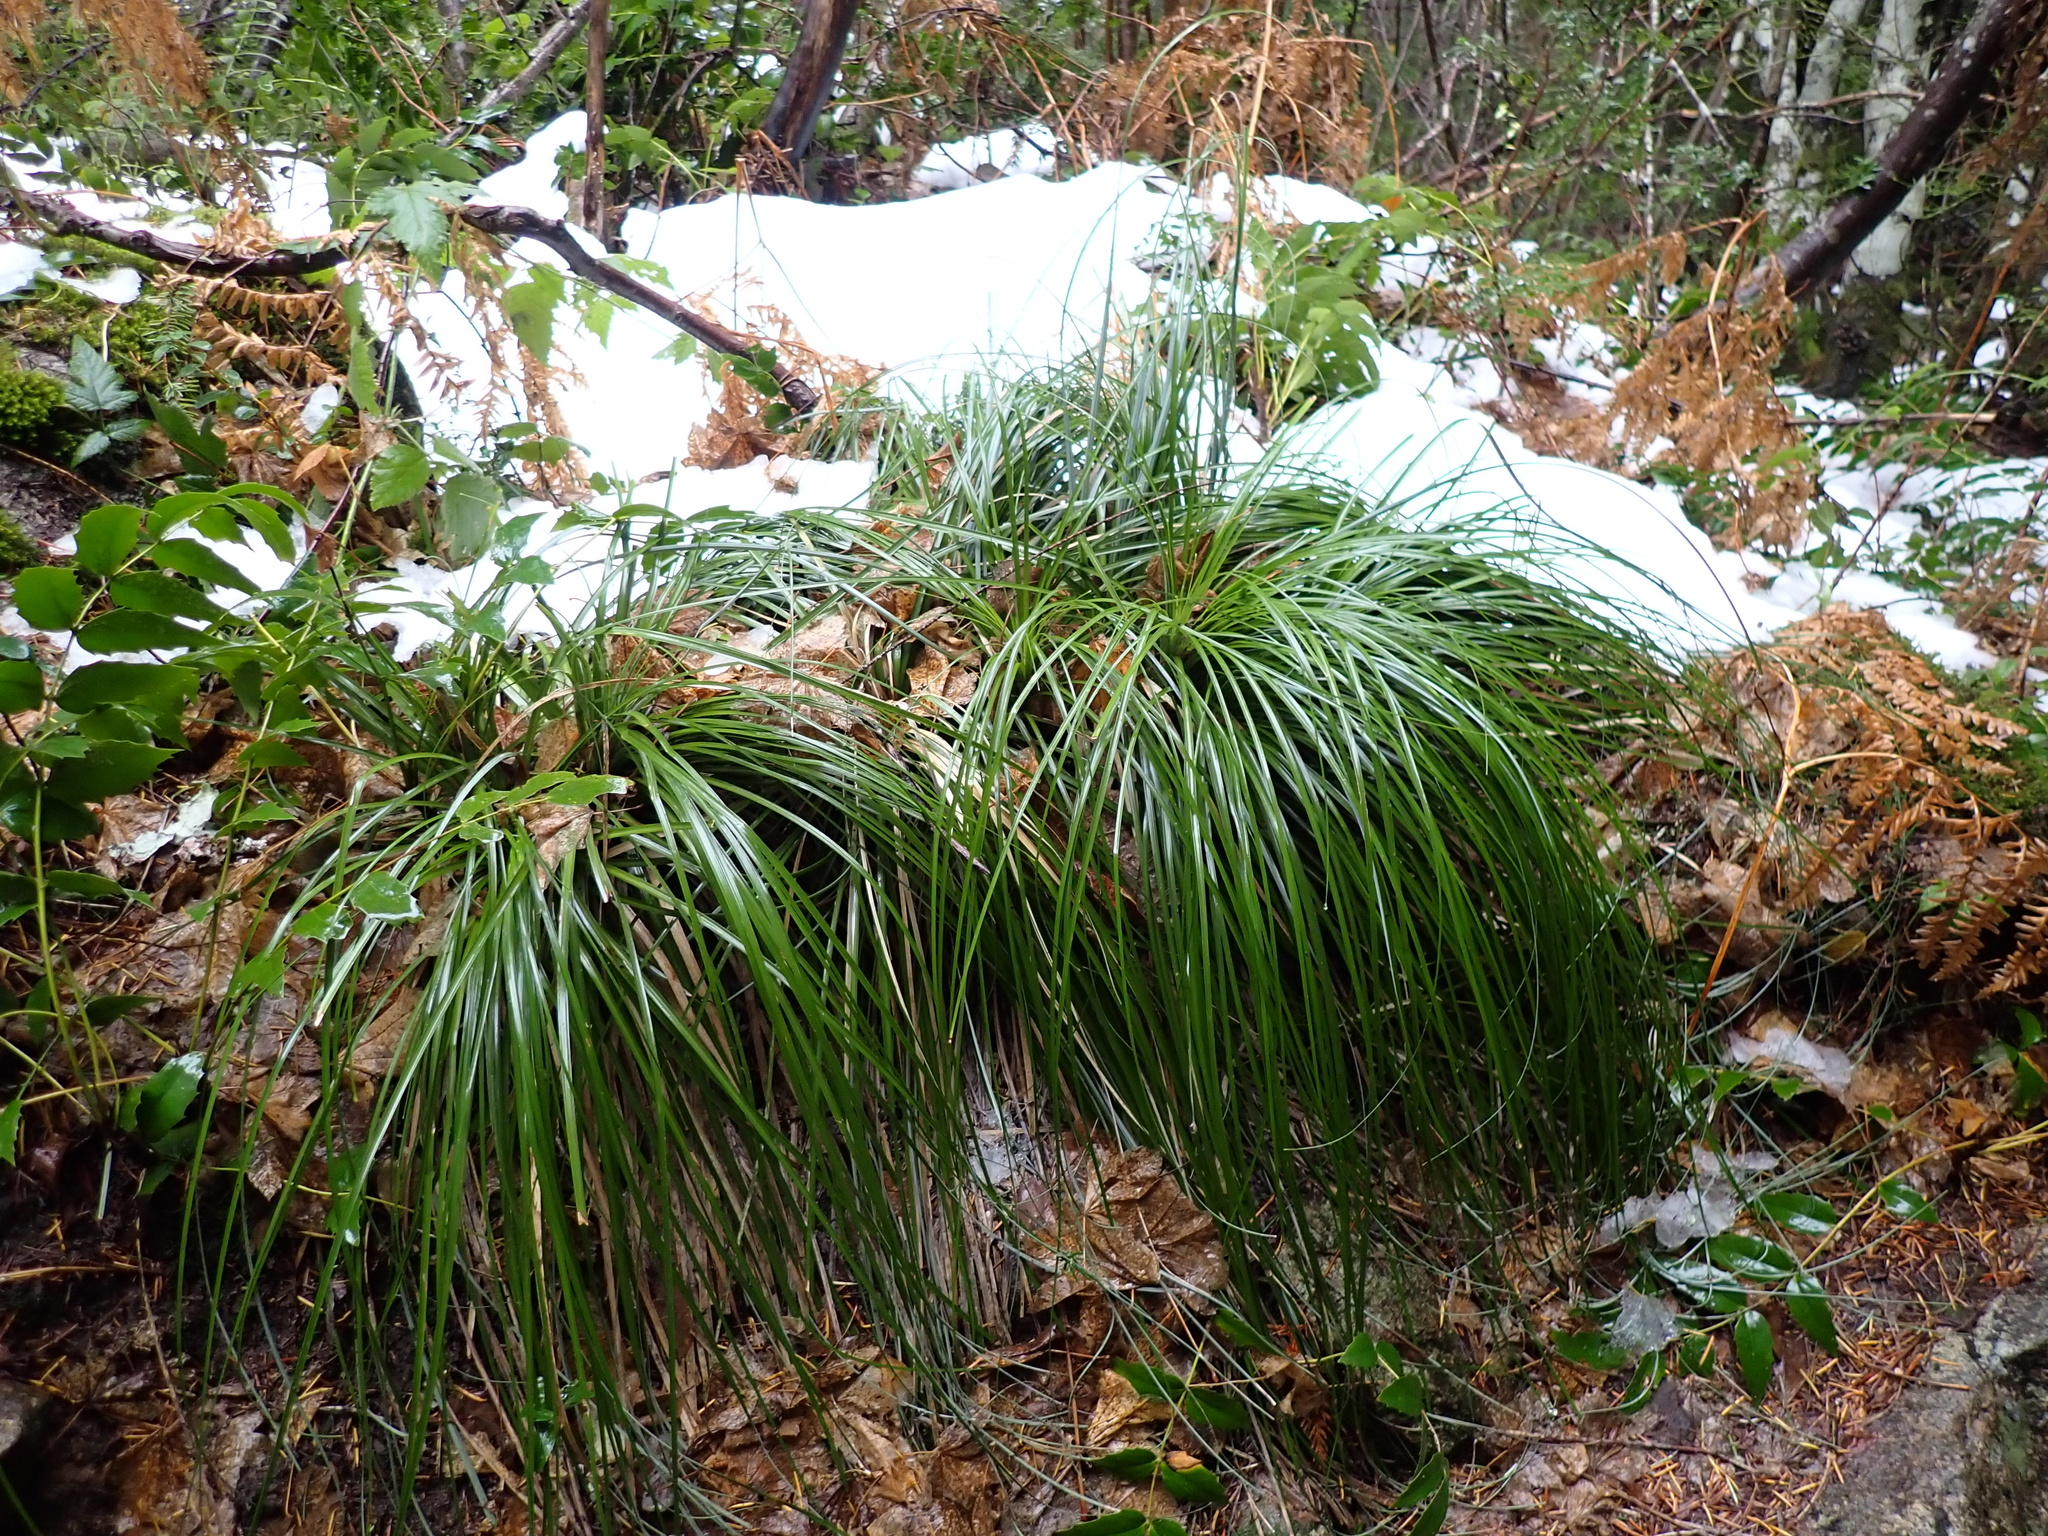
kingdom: Plantae
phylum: Tracheophyta
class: Liliopsida
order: Liliales
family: Melanthiaceae
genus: Xerophyllum
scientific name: Xerophyllum tenax
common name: Bear-grass
